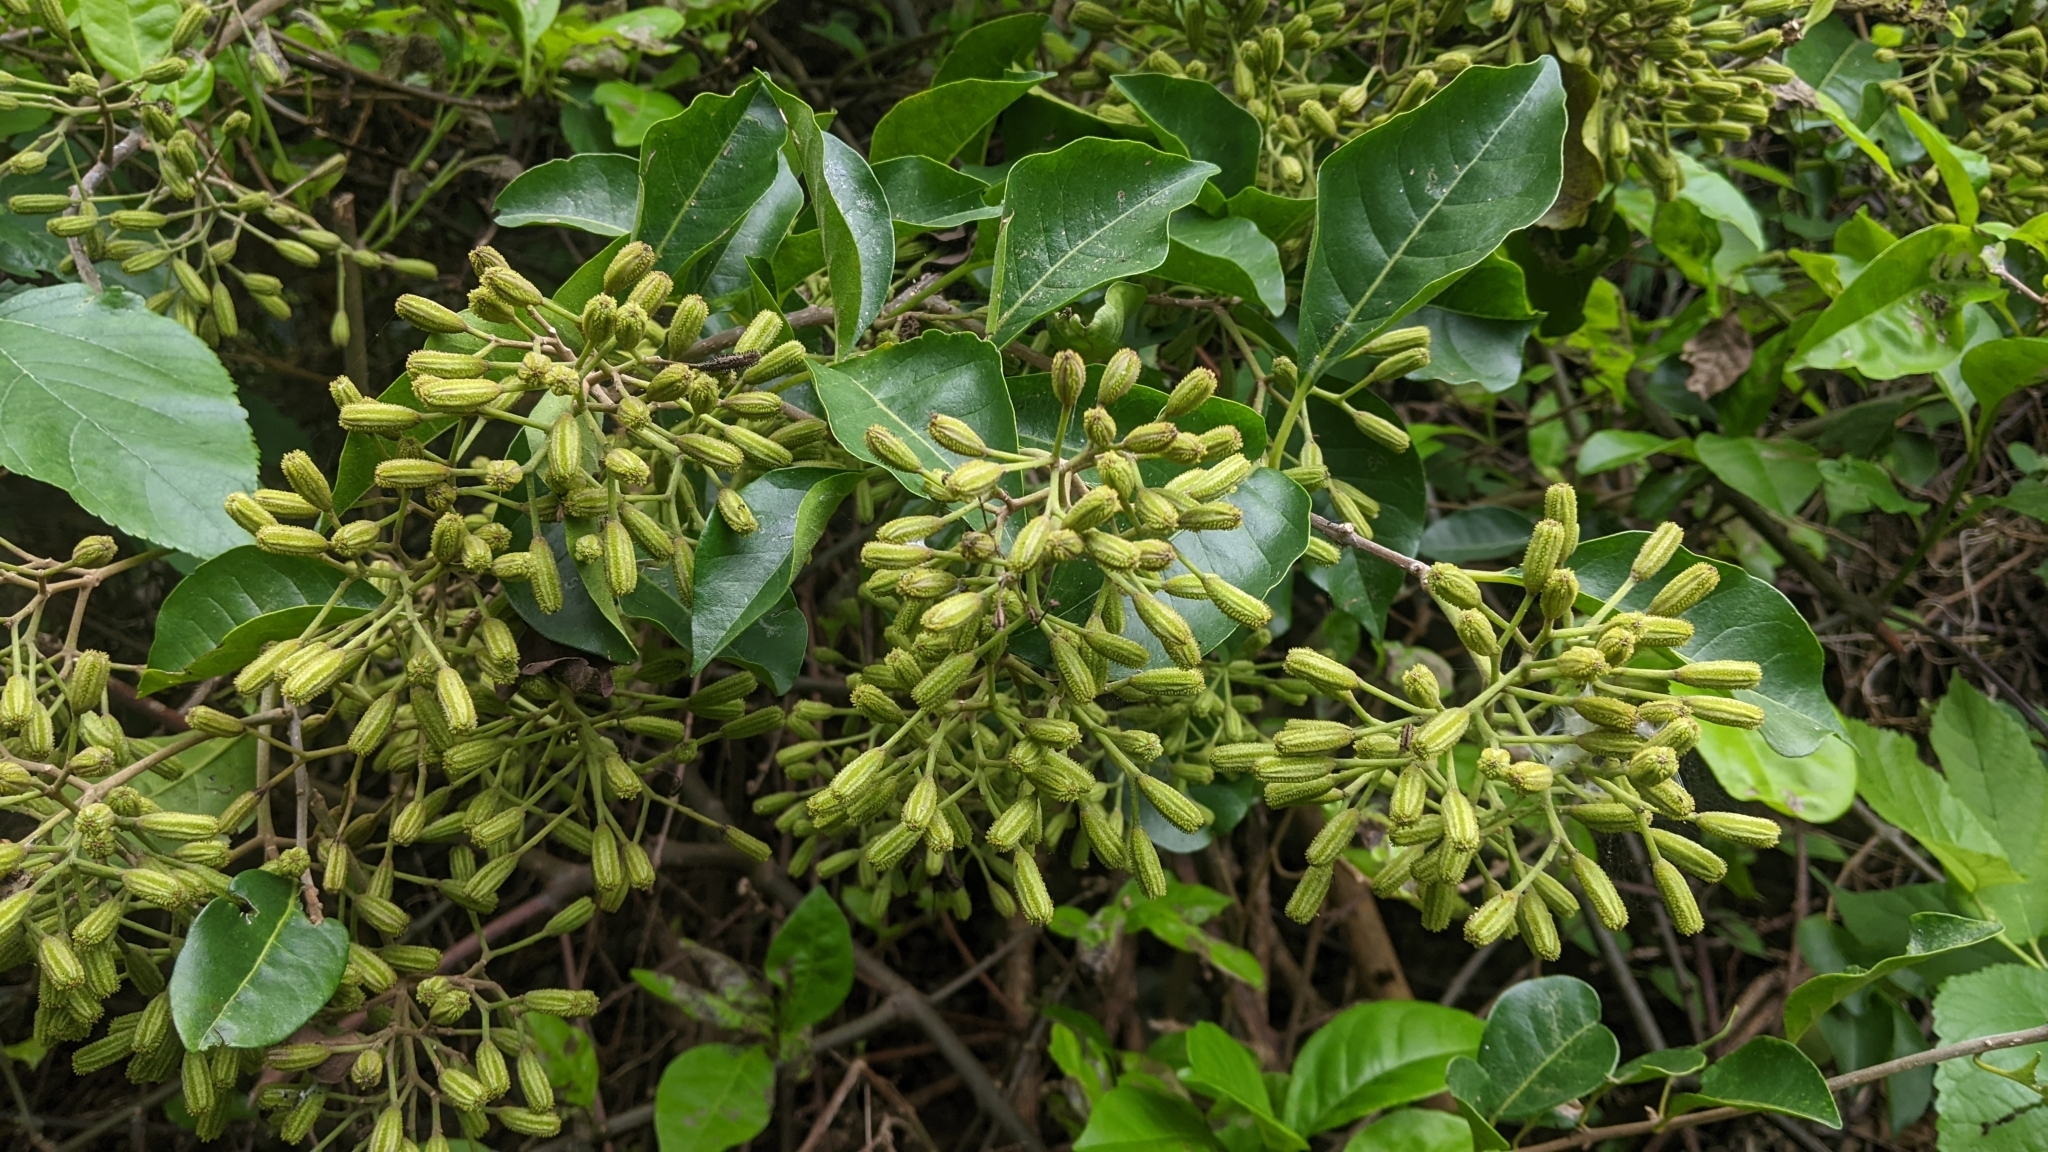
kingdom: Plantae
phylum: Tracheophyta
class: Magnoliopsida
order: Caryophyllales
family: Nyctaginaceae
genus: Pisonia
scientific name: Pisonia aculeata
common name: Cockspur vine
